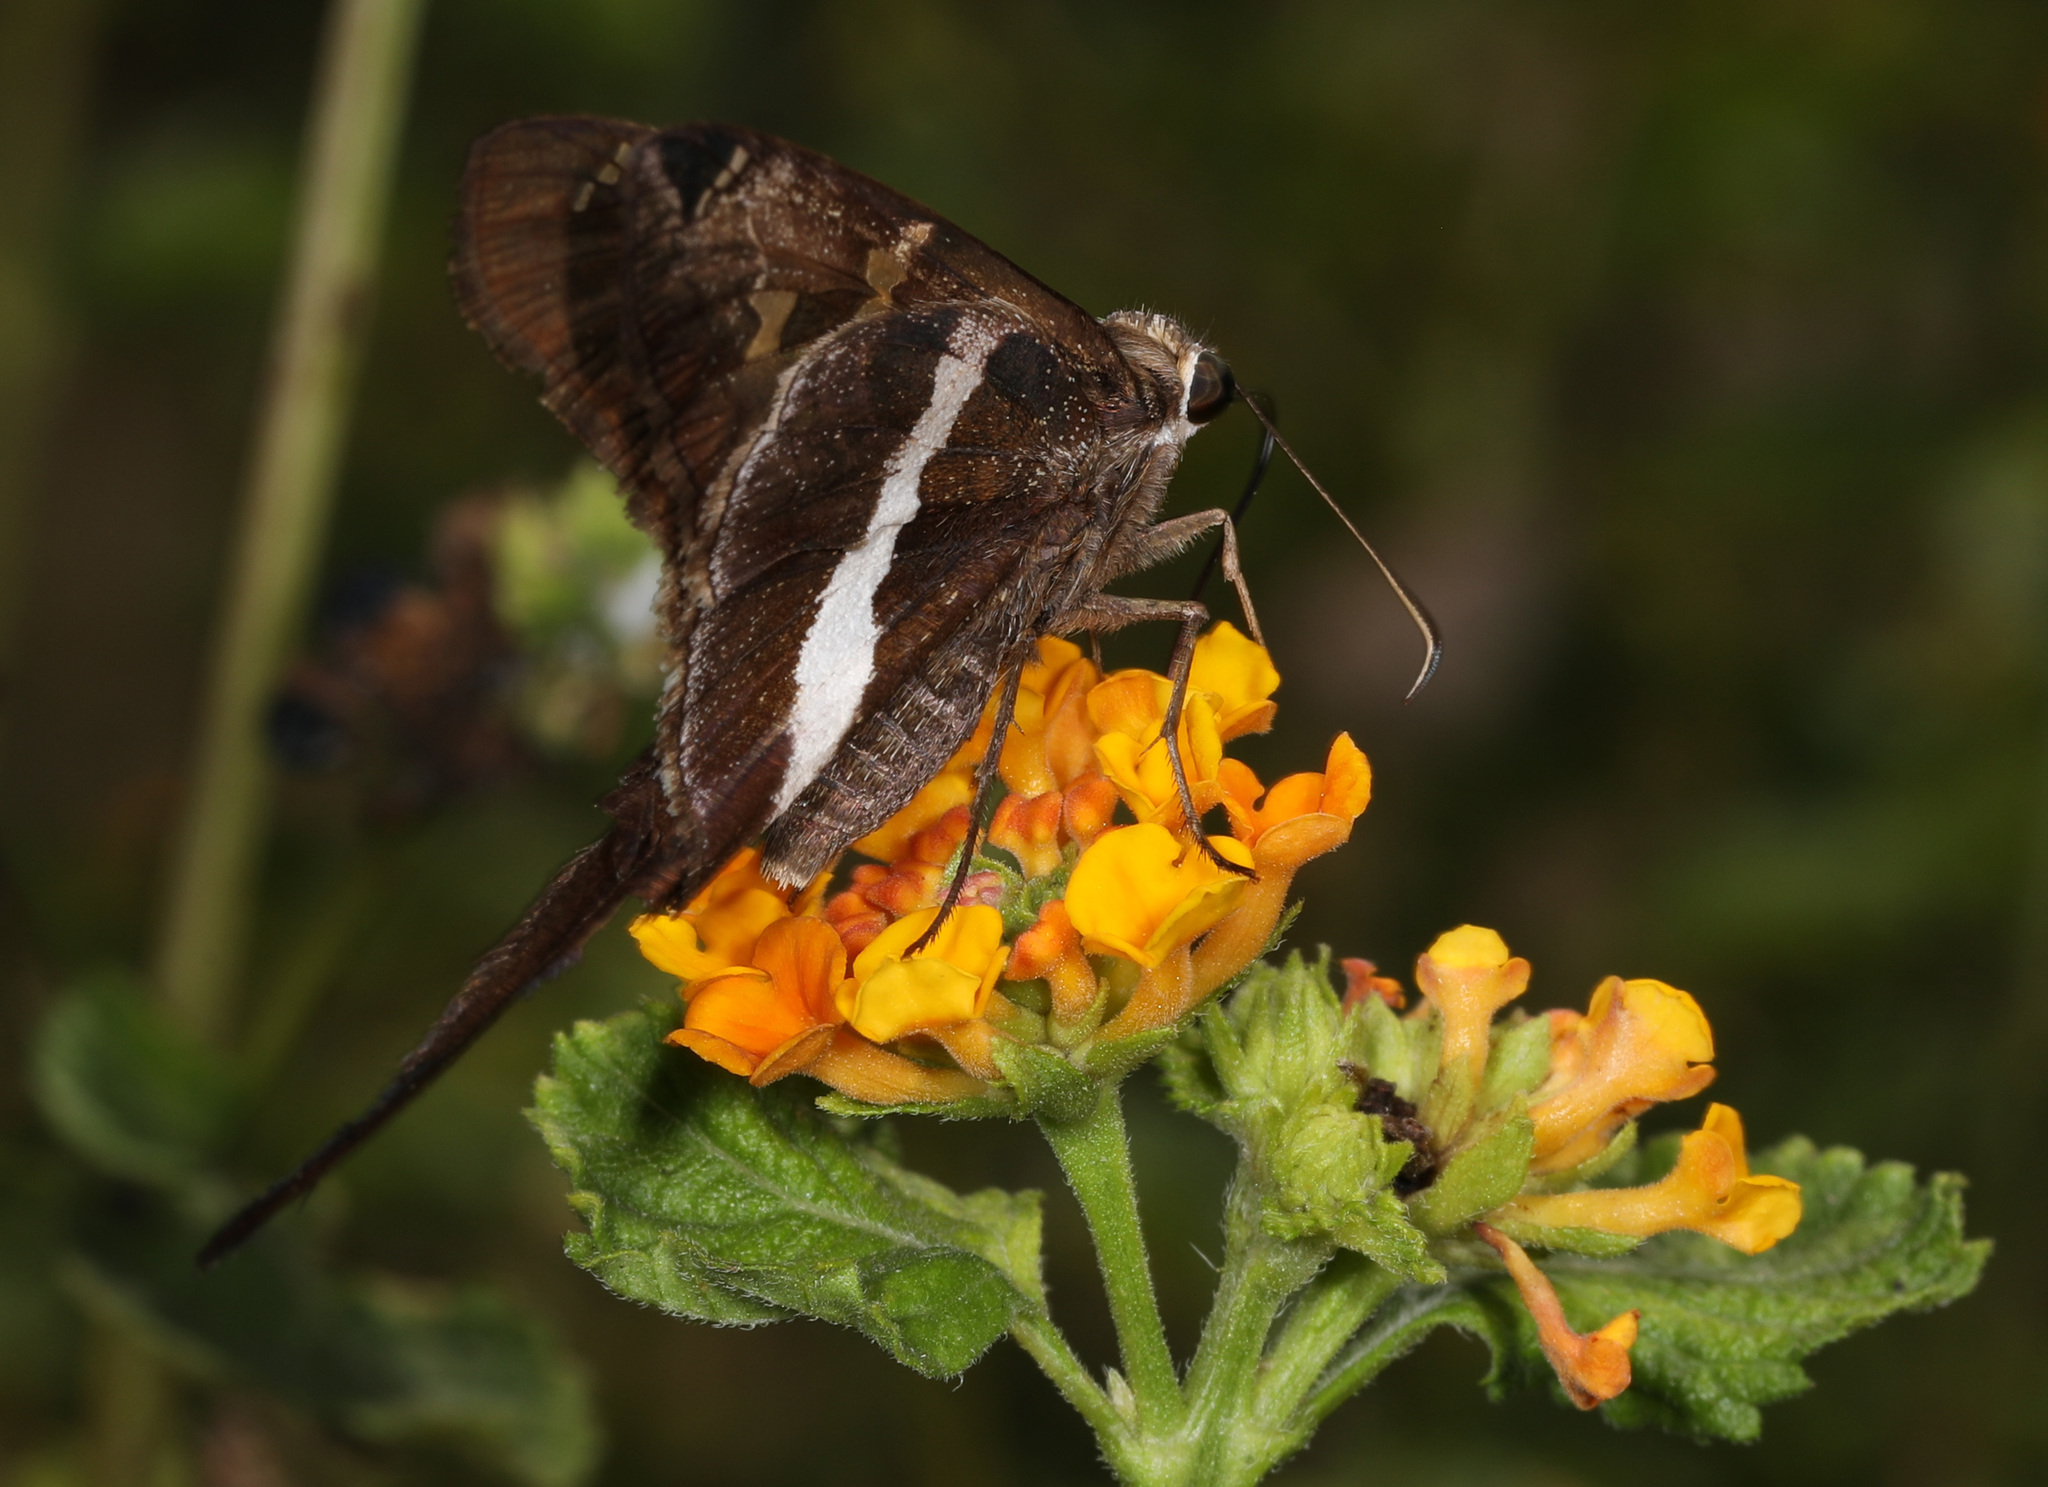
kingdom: Animalia
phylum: Arthropoda
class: Insecta
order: Lepidoptera
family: Hesperiidae
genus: Chioides
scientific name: Chioides catillus
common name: Silverbanded skipper
